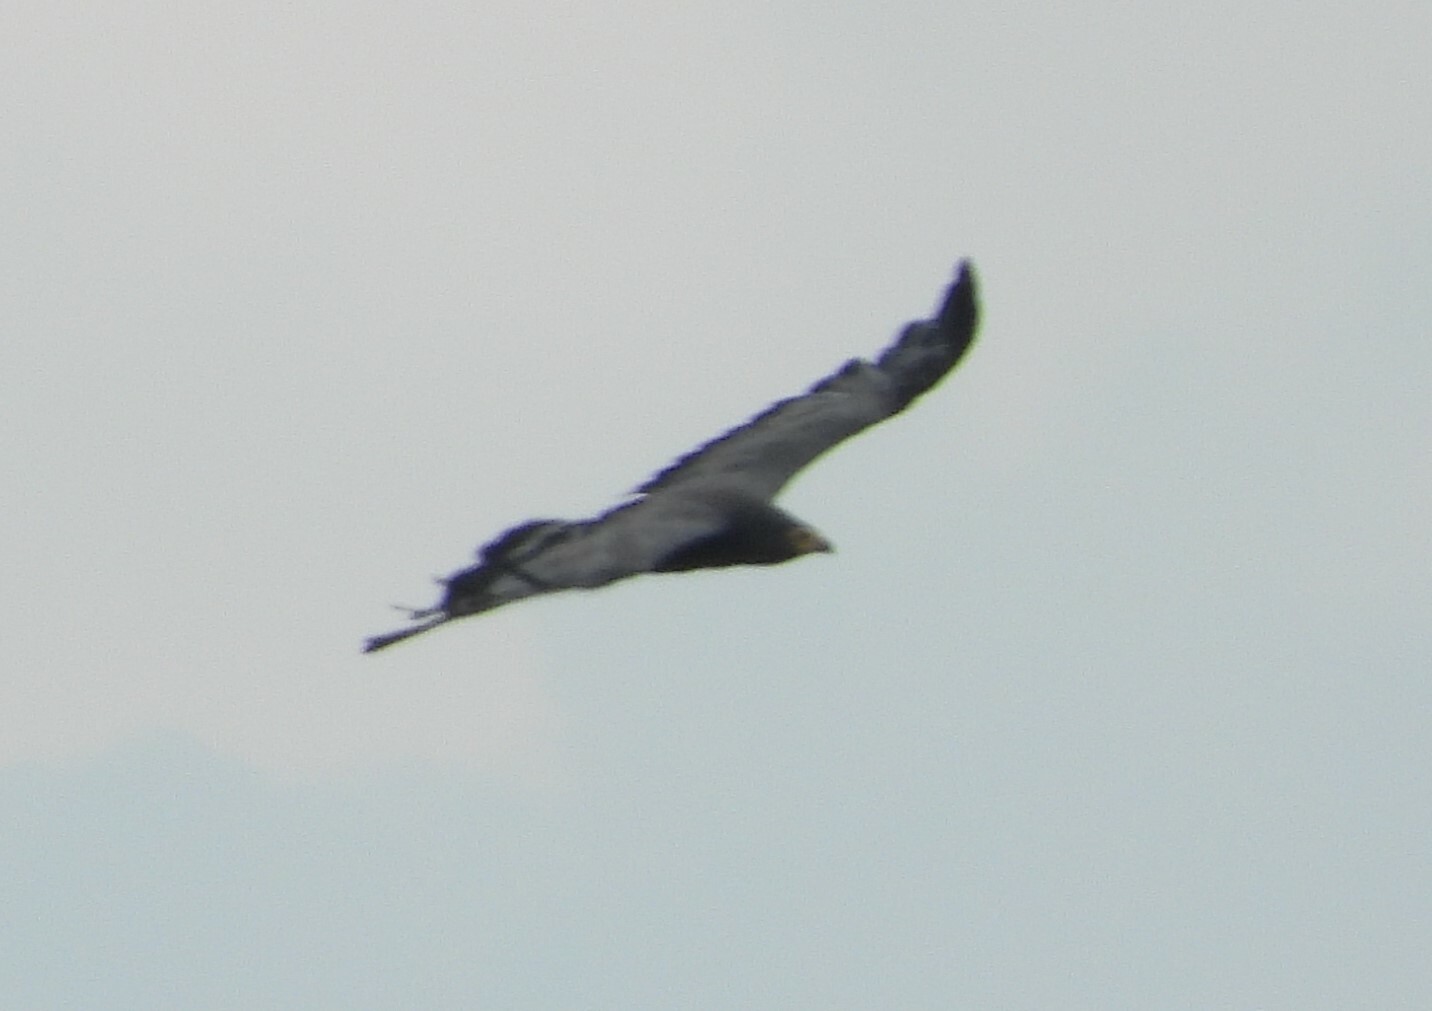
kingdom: Animalia
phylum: Chordata
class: Aves
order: Accipitriformes
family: Accipitridae
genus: Polyboroides
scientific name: Polyboroides typus
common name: African harrier-hawk
